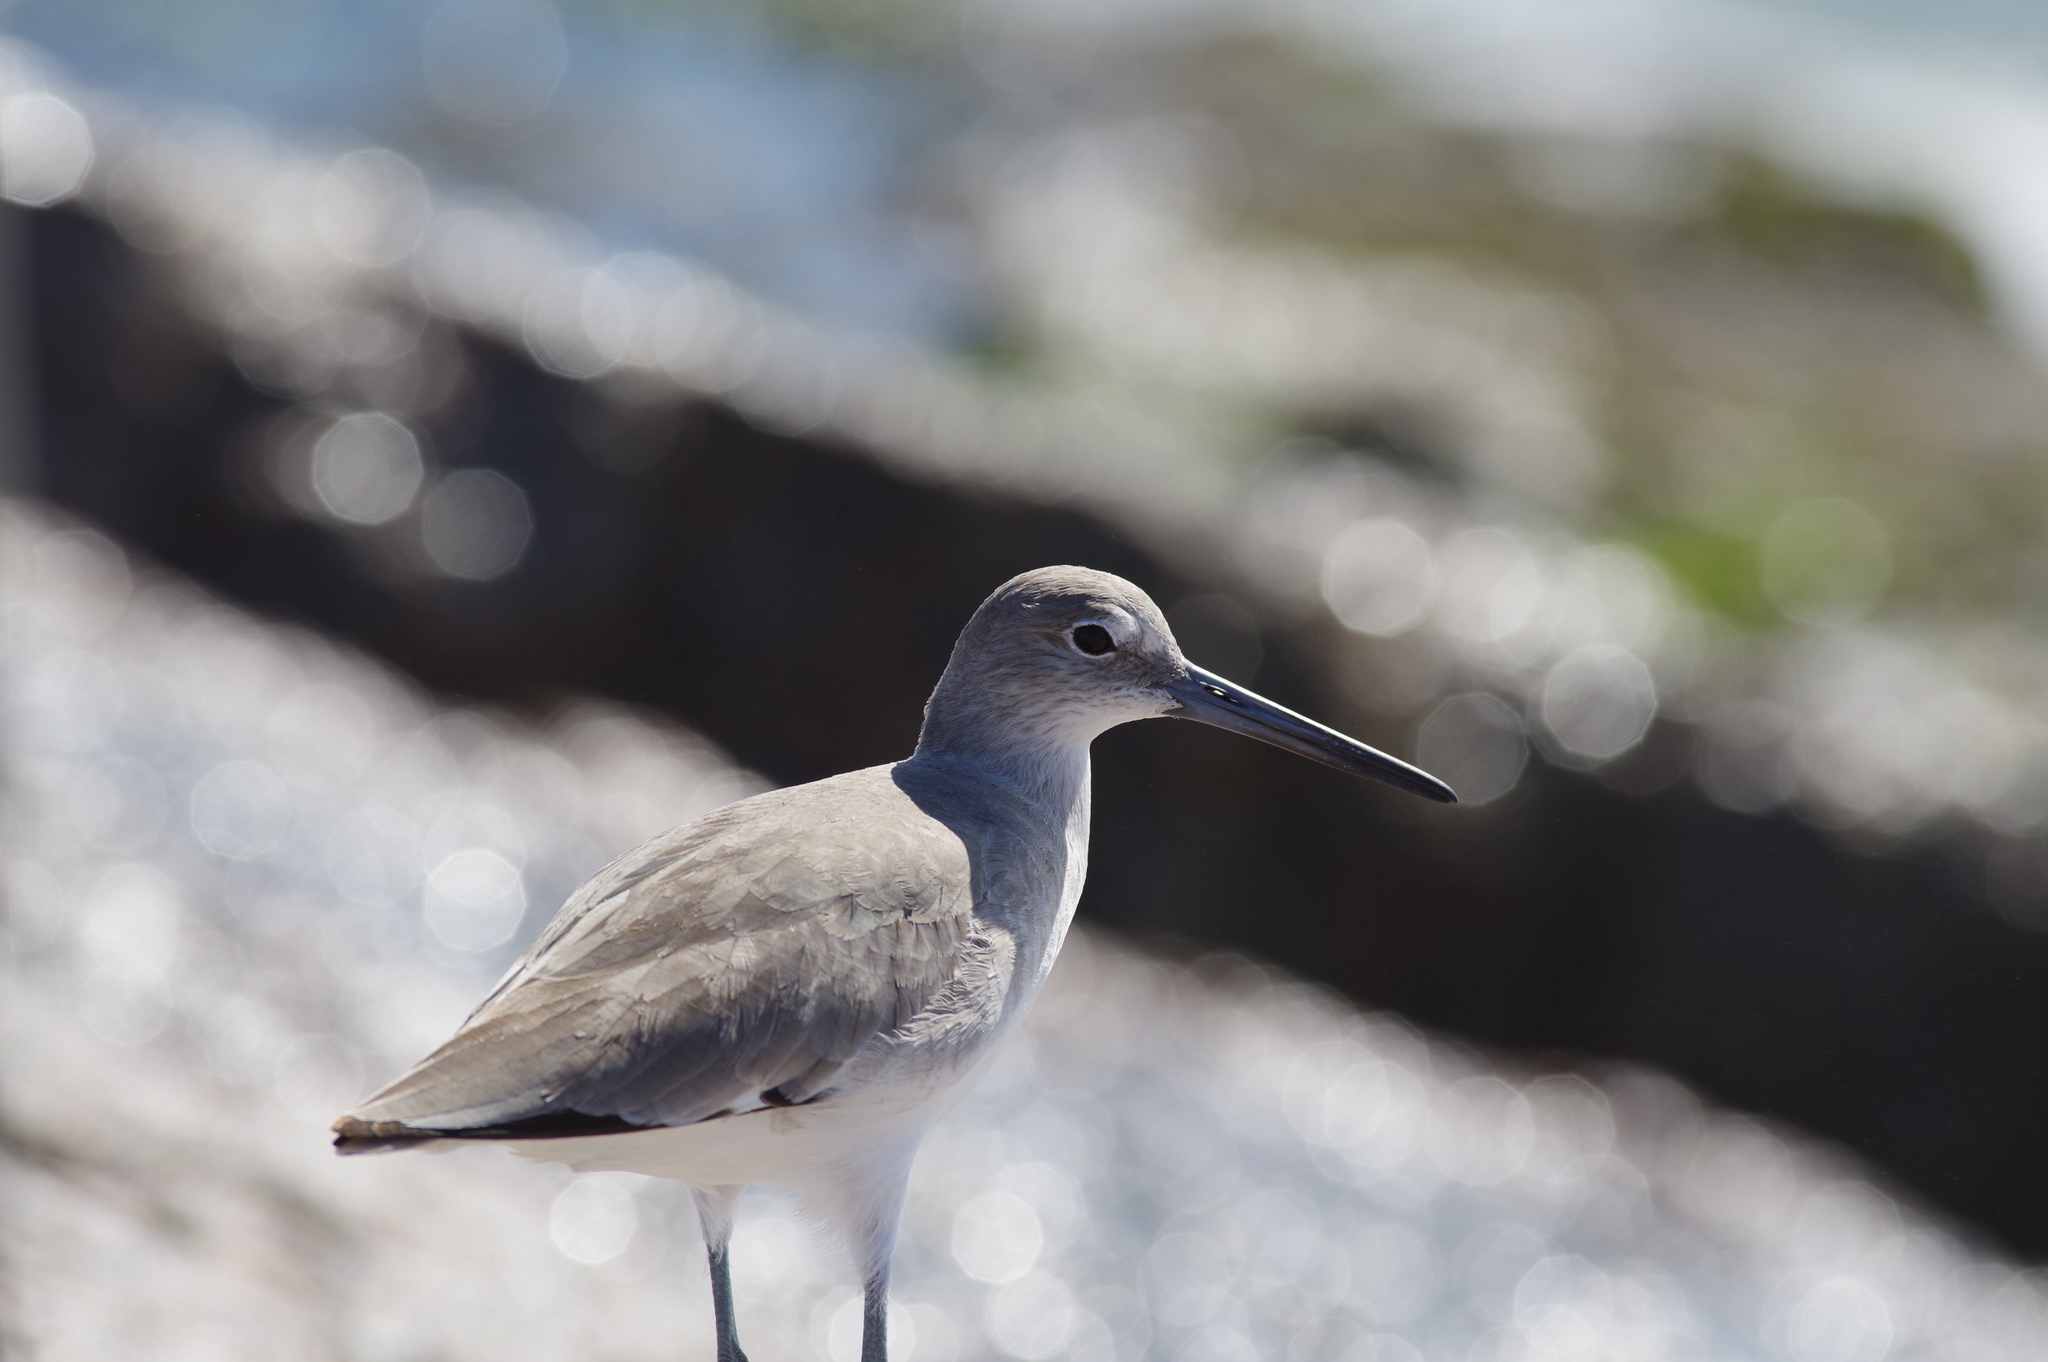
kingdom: Animalia
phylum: Chordata
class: Aves
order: Charadriiformes
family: Scolopacidae
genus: Tringa
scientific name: Tringa semipalmata
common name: Willet
